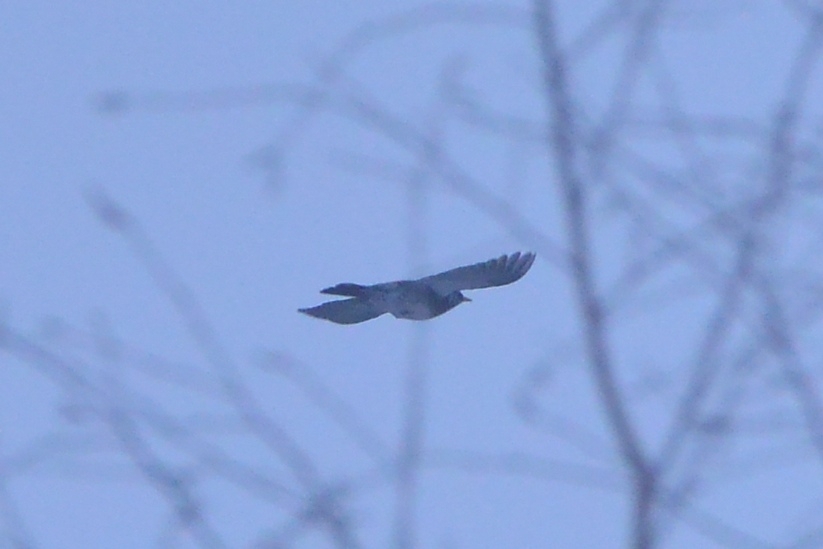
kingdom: Animalia
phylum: Chordata
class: Aves
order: Passeriformes
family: Turdidae
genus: Turdus
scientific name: Turdus pilaris
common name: Fieldfare
